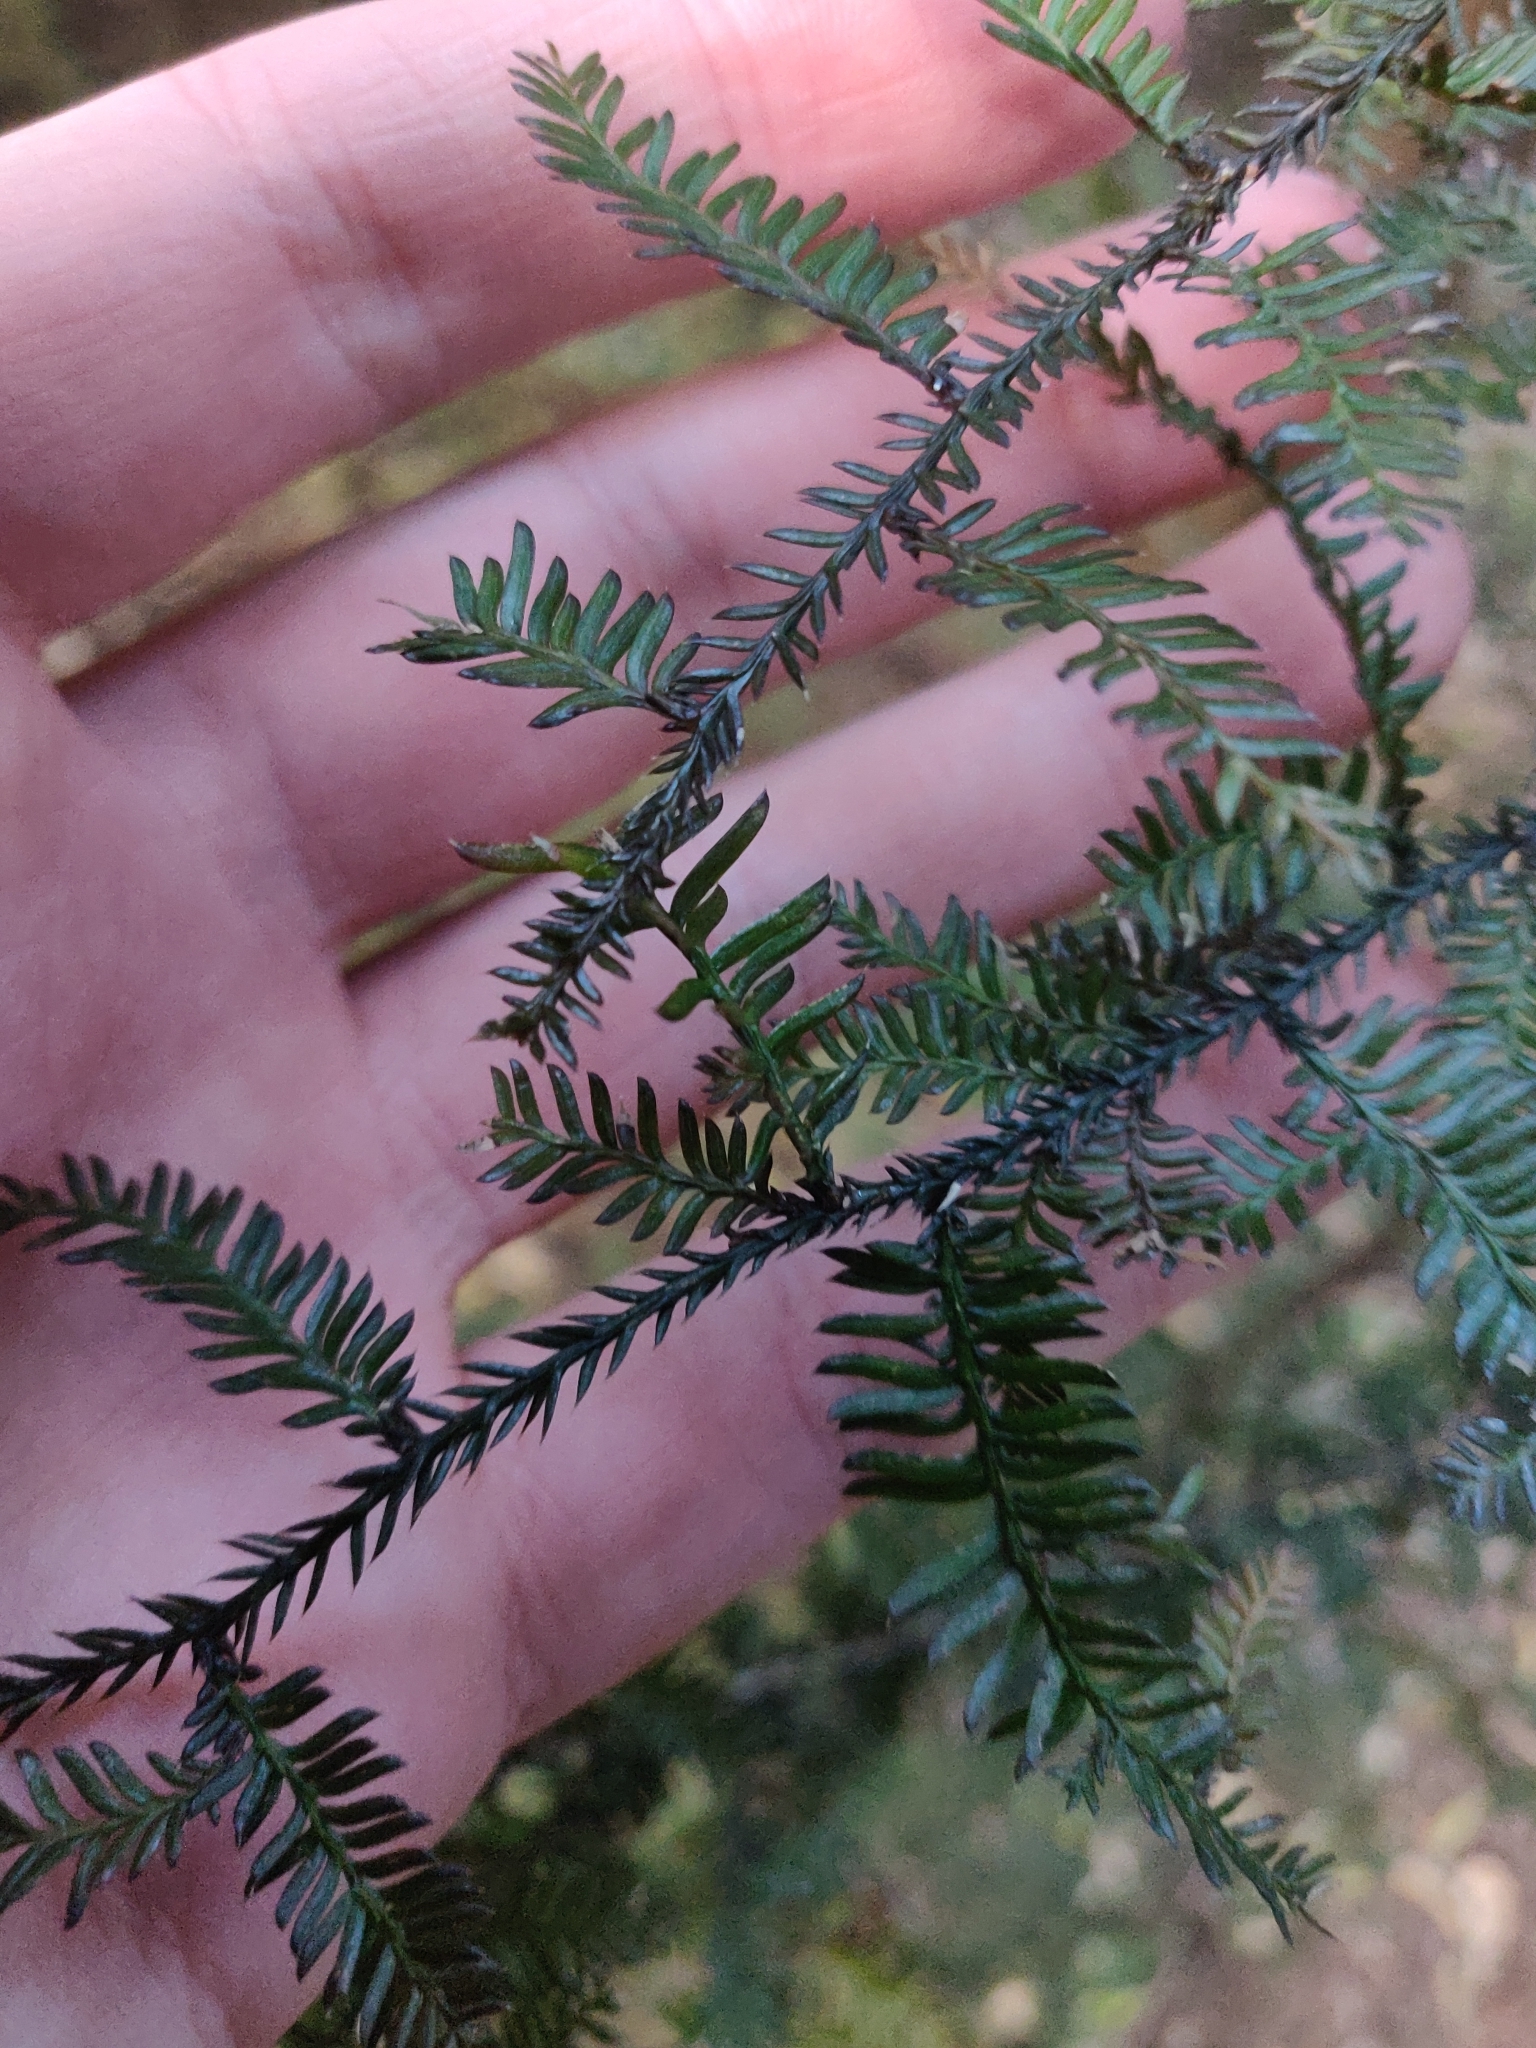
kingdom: Plantae
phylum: Tracheophyta
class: Pinopsida
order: Pinales
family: Podocarpaceae
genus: Dacrycarpus
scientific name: Dacrycarpus dacrydioides
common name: White pine
